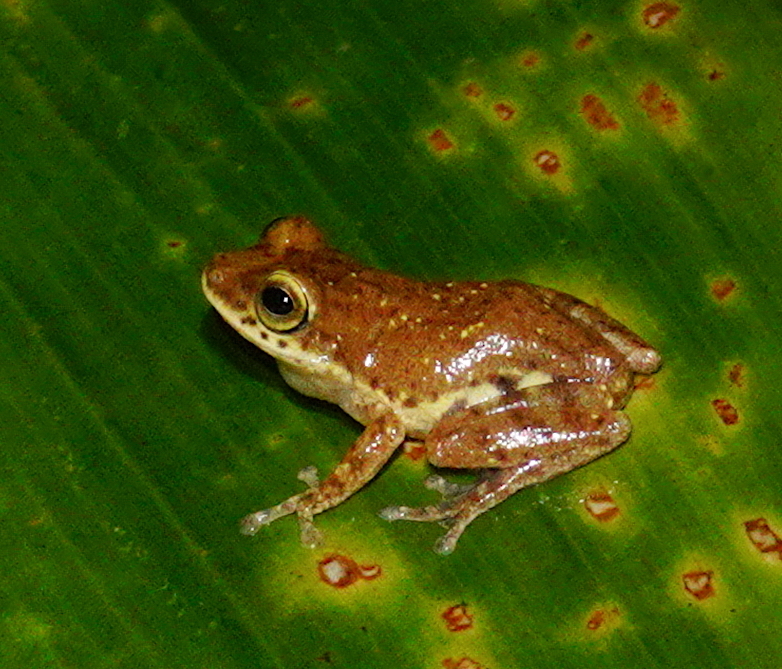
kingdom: Animalia
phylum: Chordata
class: Amphibia
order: Anura
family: Rhacophoridae
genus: Pseudophilautus
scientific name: Pseudophilautus asankai
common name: Asanka's shrub frog
